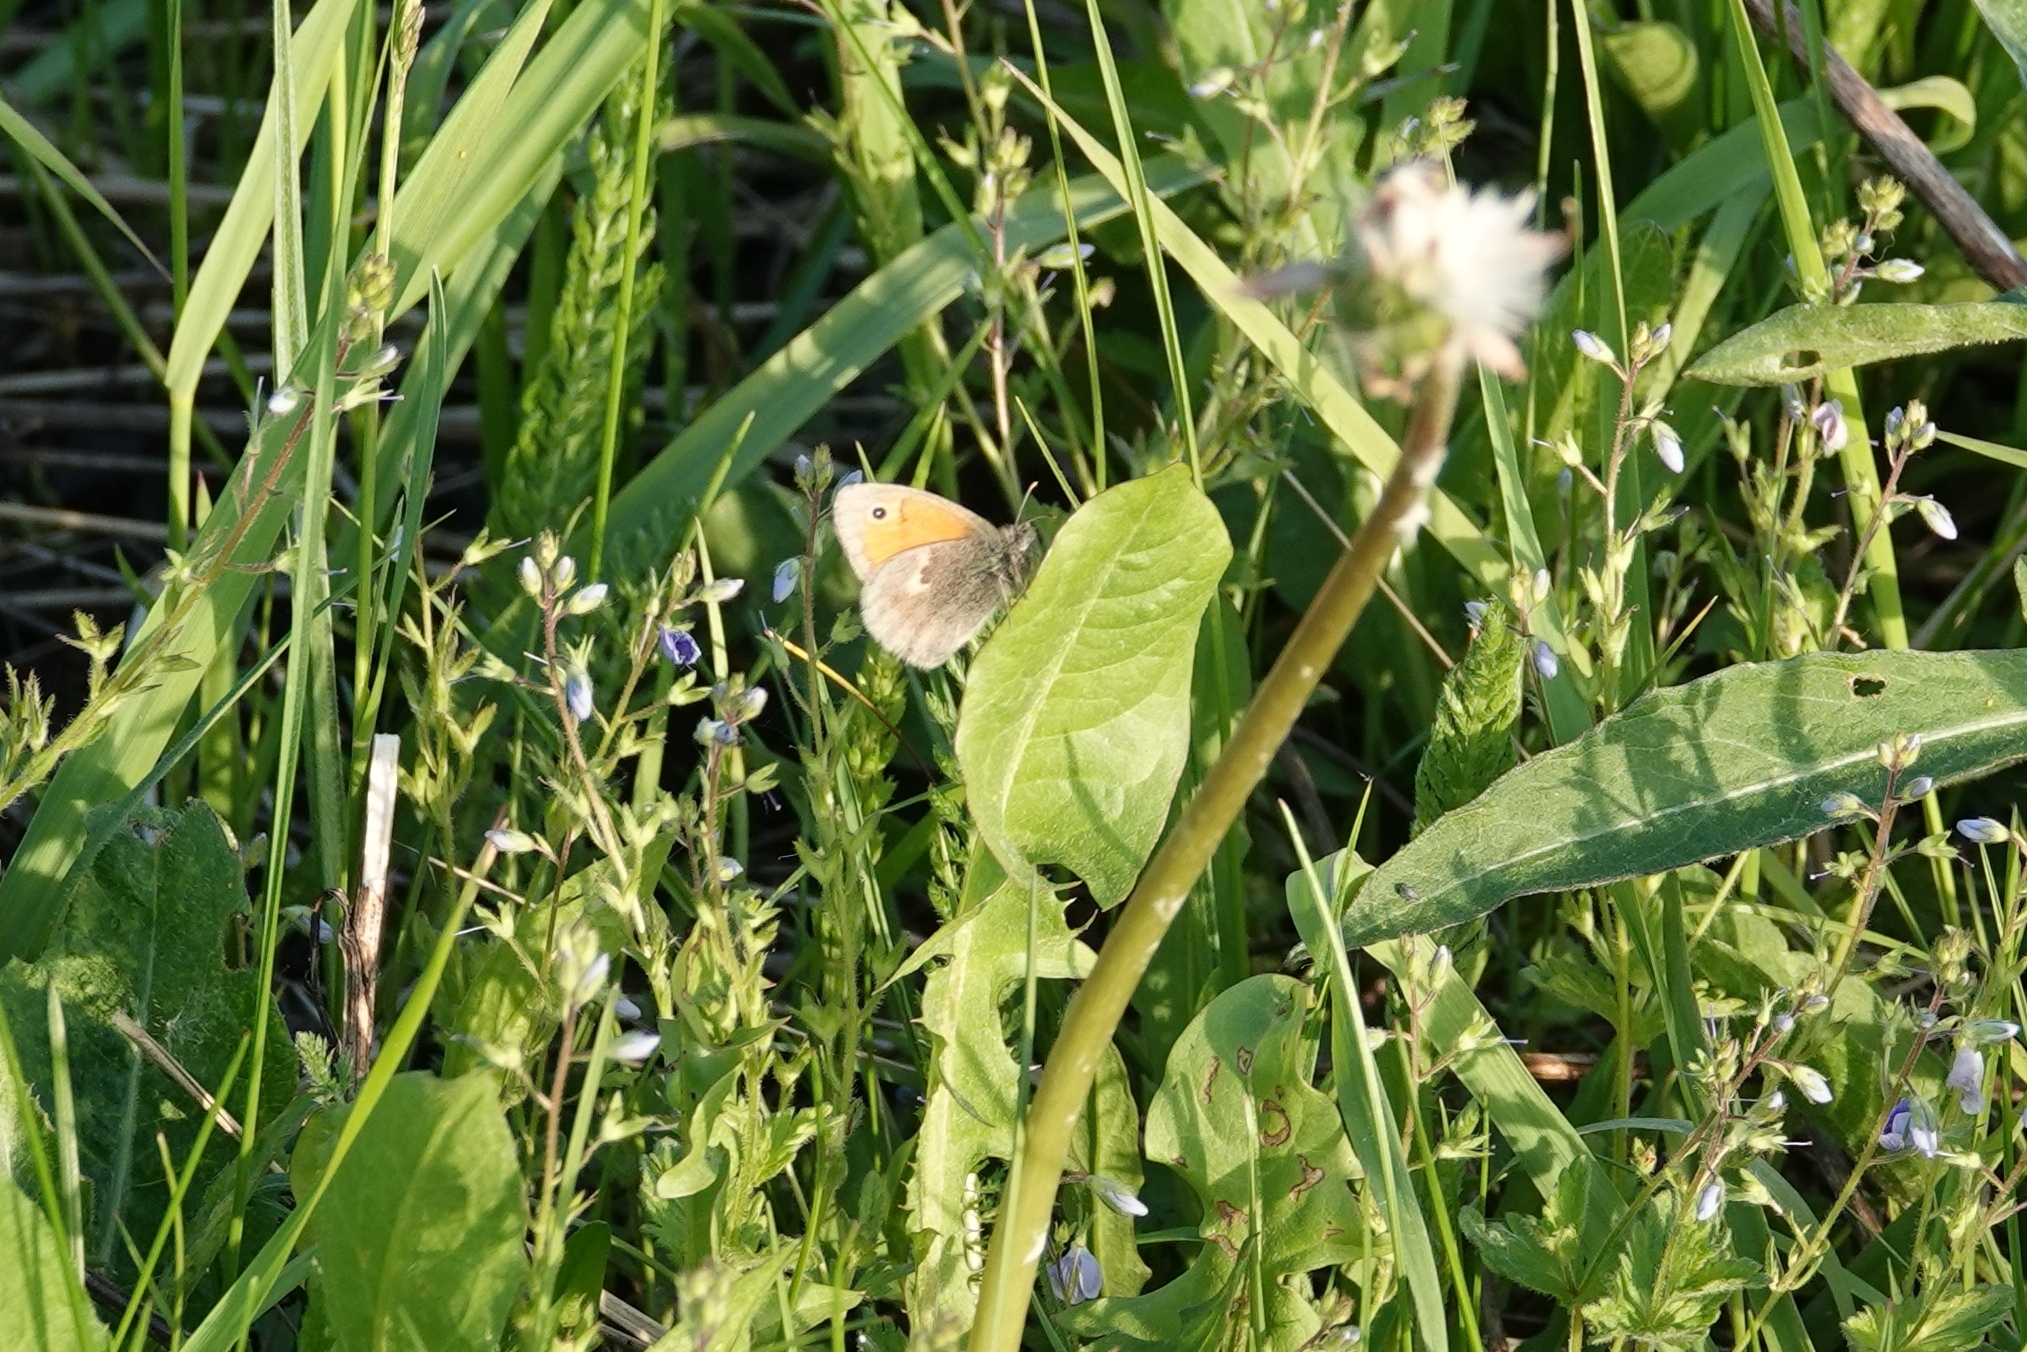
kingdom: Animalia
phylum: Arthropoda
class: Insecta
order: Lepidoptera
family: Nymphalidae
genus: Coenonympha
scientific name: Coenonympha pamphilus
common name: Small heath
